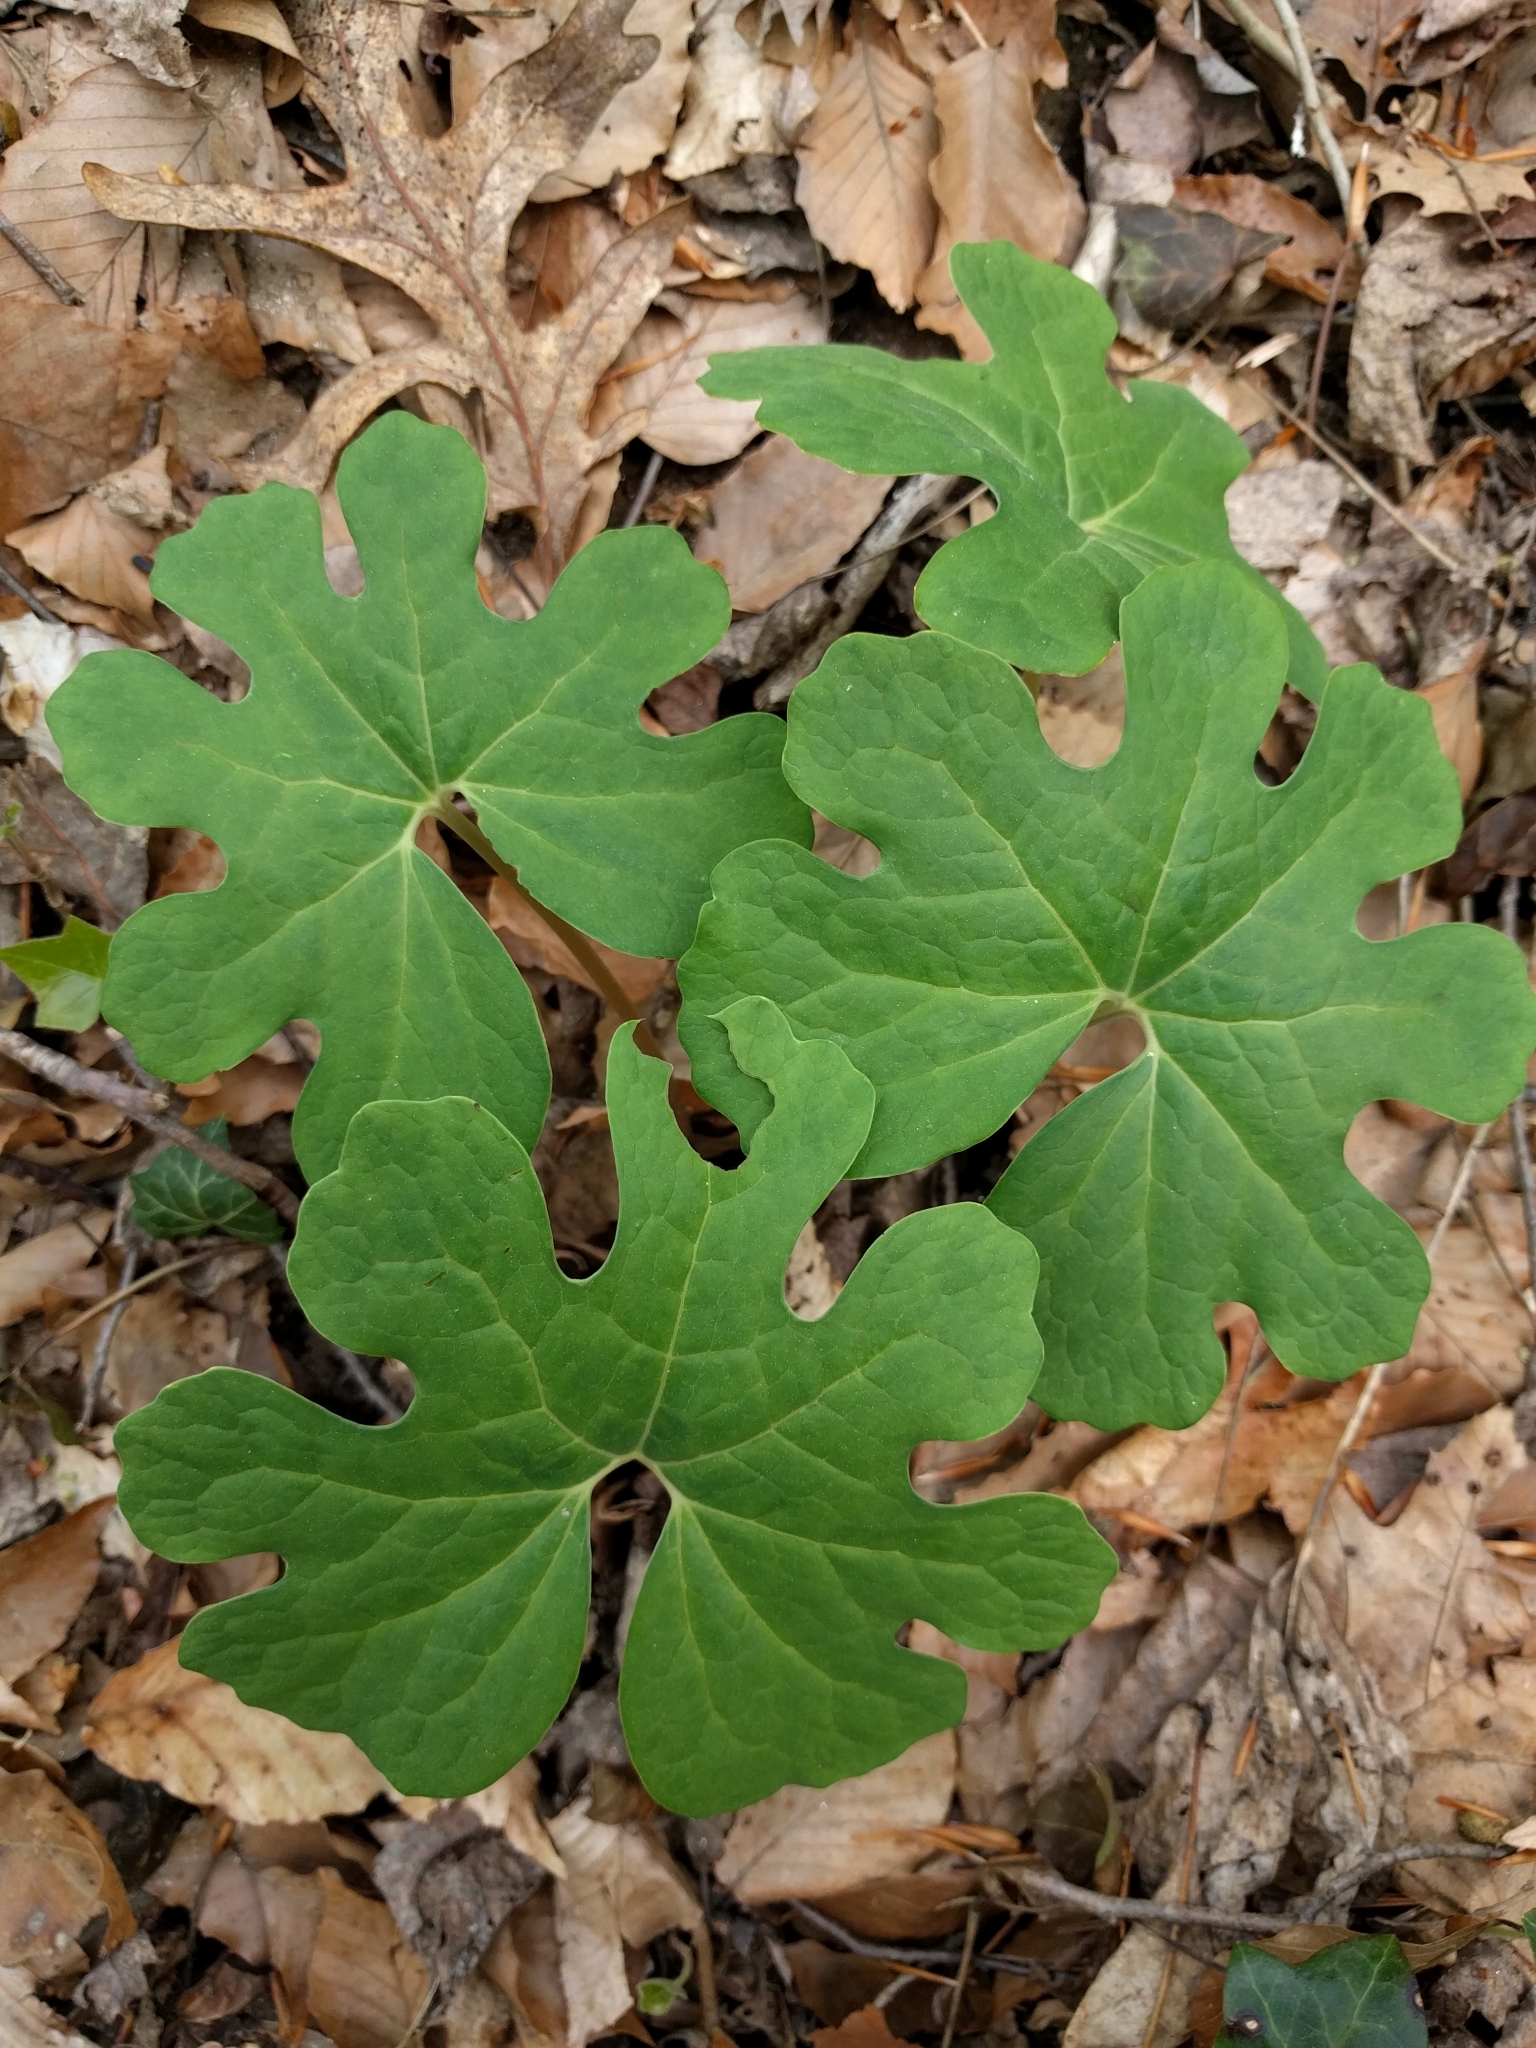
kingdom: Plantae
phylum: Tracheophyta
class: Magnoliopsida
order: Ranunculales
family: Papaveraceae
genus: Sanguinaria
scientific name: Sanguinaria canadensis
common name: Bloodroot
